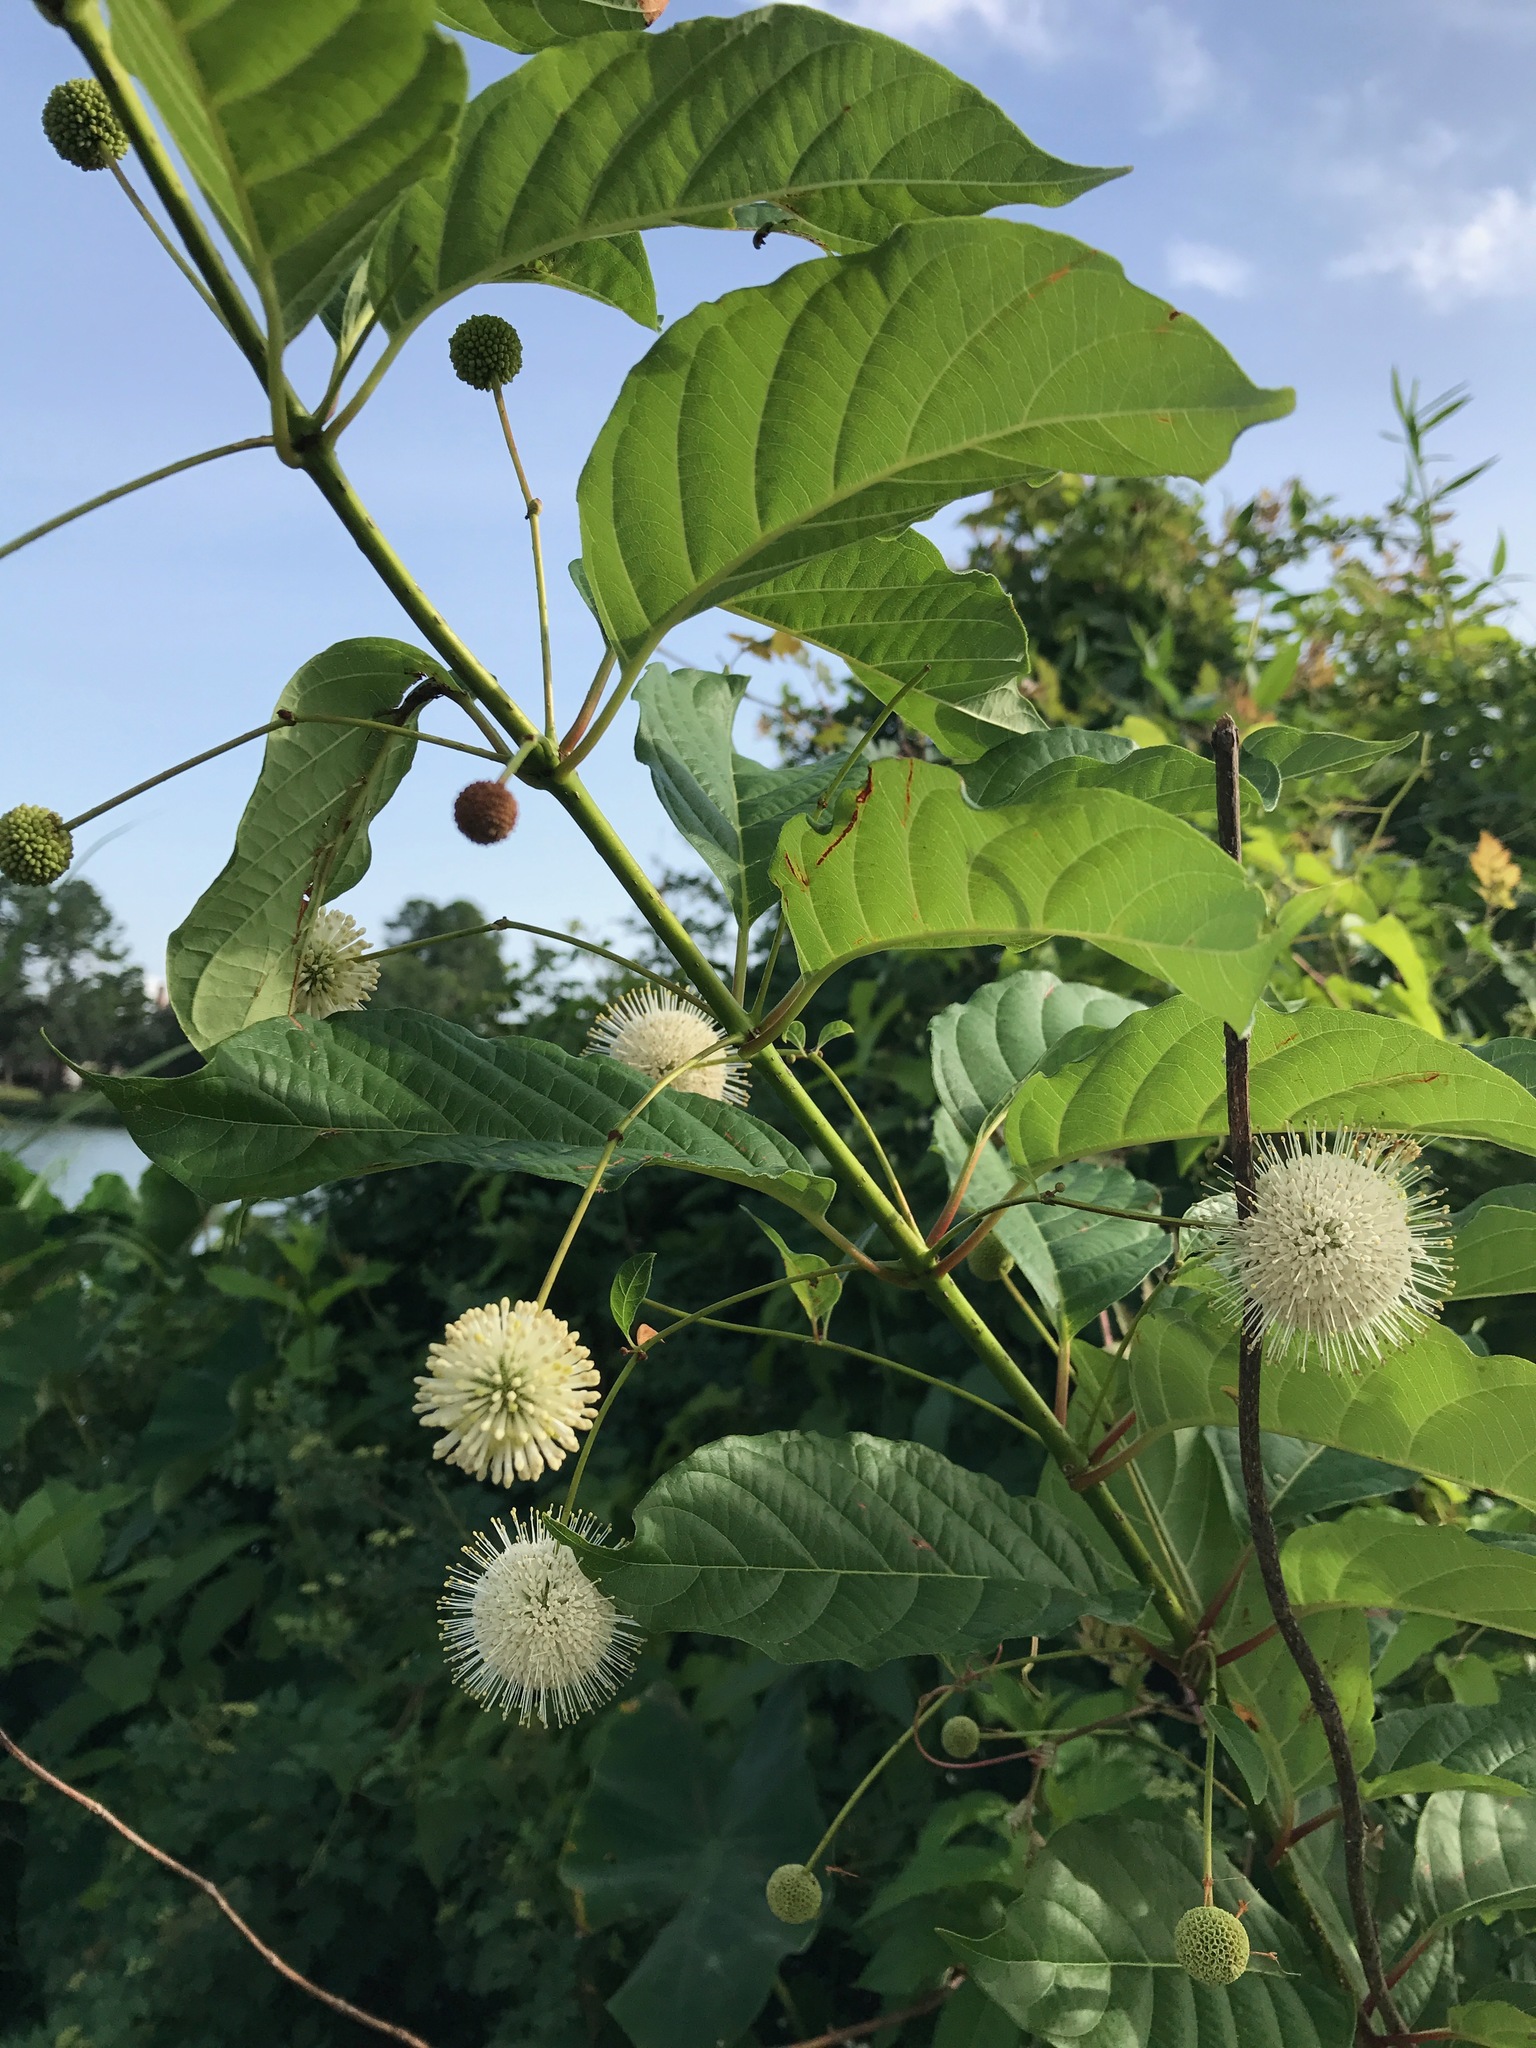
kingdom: Plantae
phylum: Tracheophyta
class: Magnoliopsida
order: Gentianales
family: Rubiaceae
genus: Cephalanthus
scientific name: Cephalanthus occidentalis
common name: Button-willow
